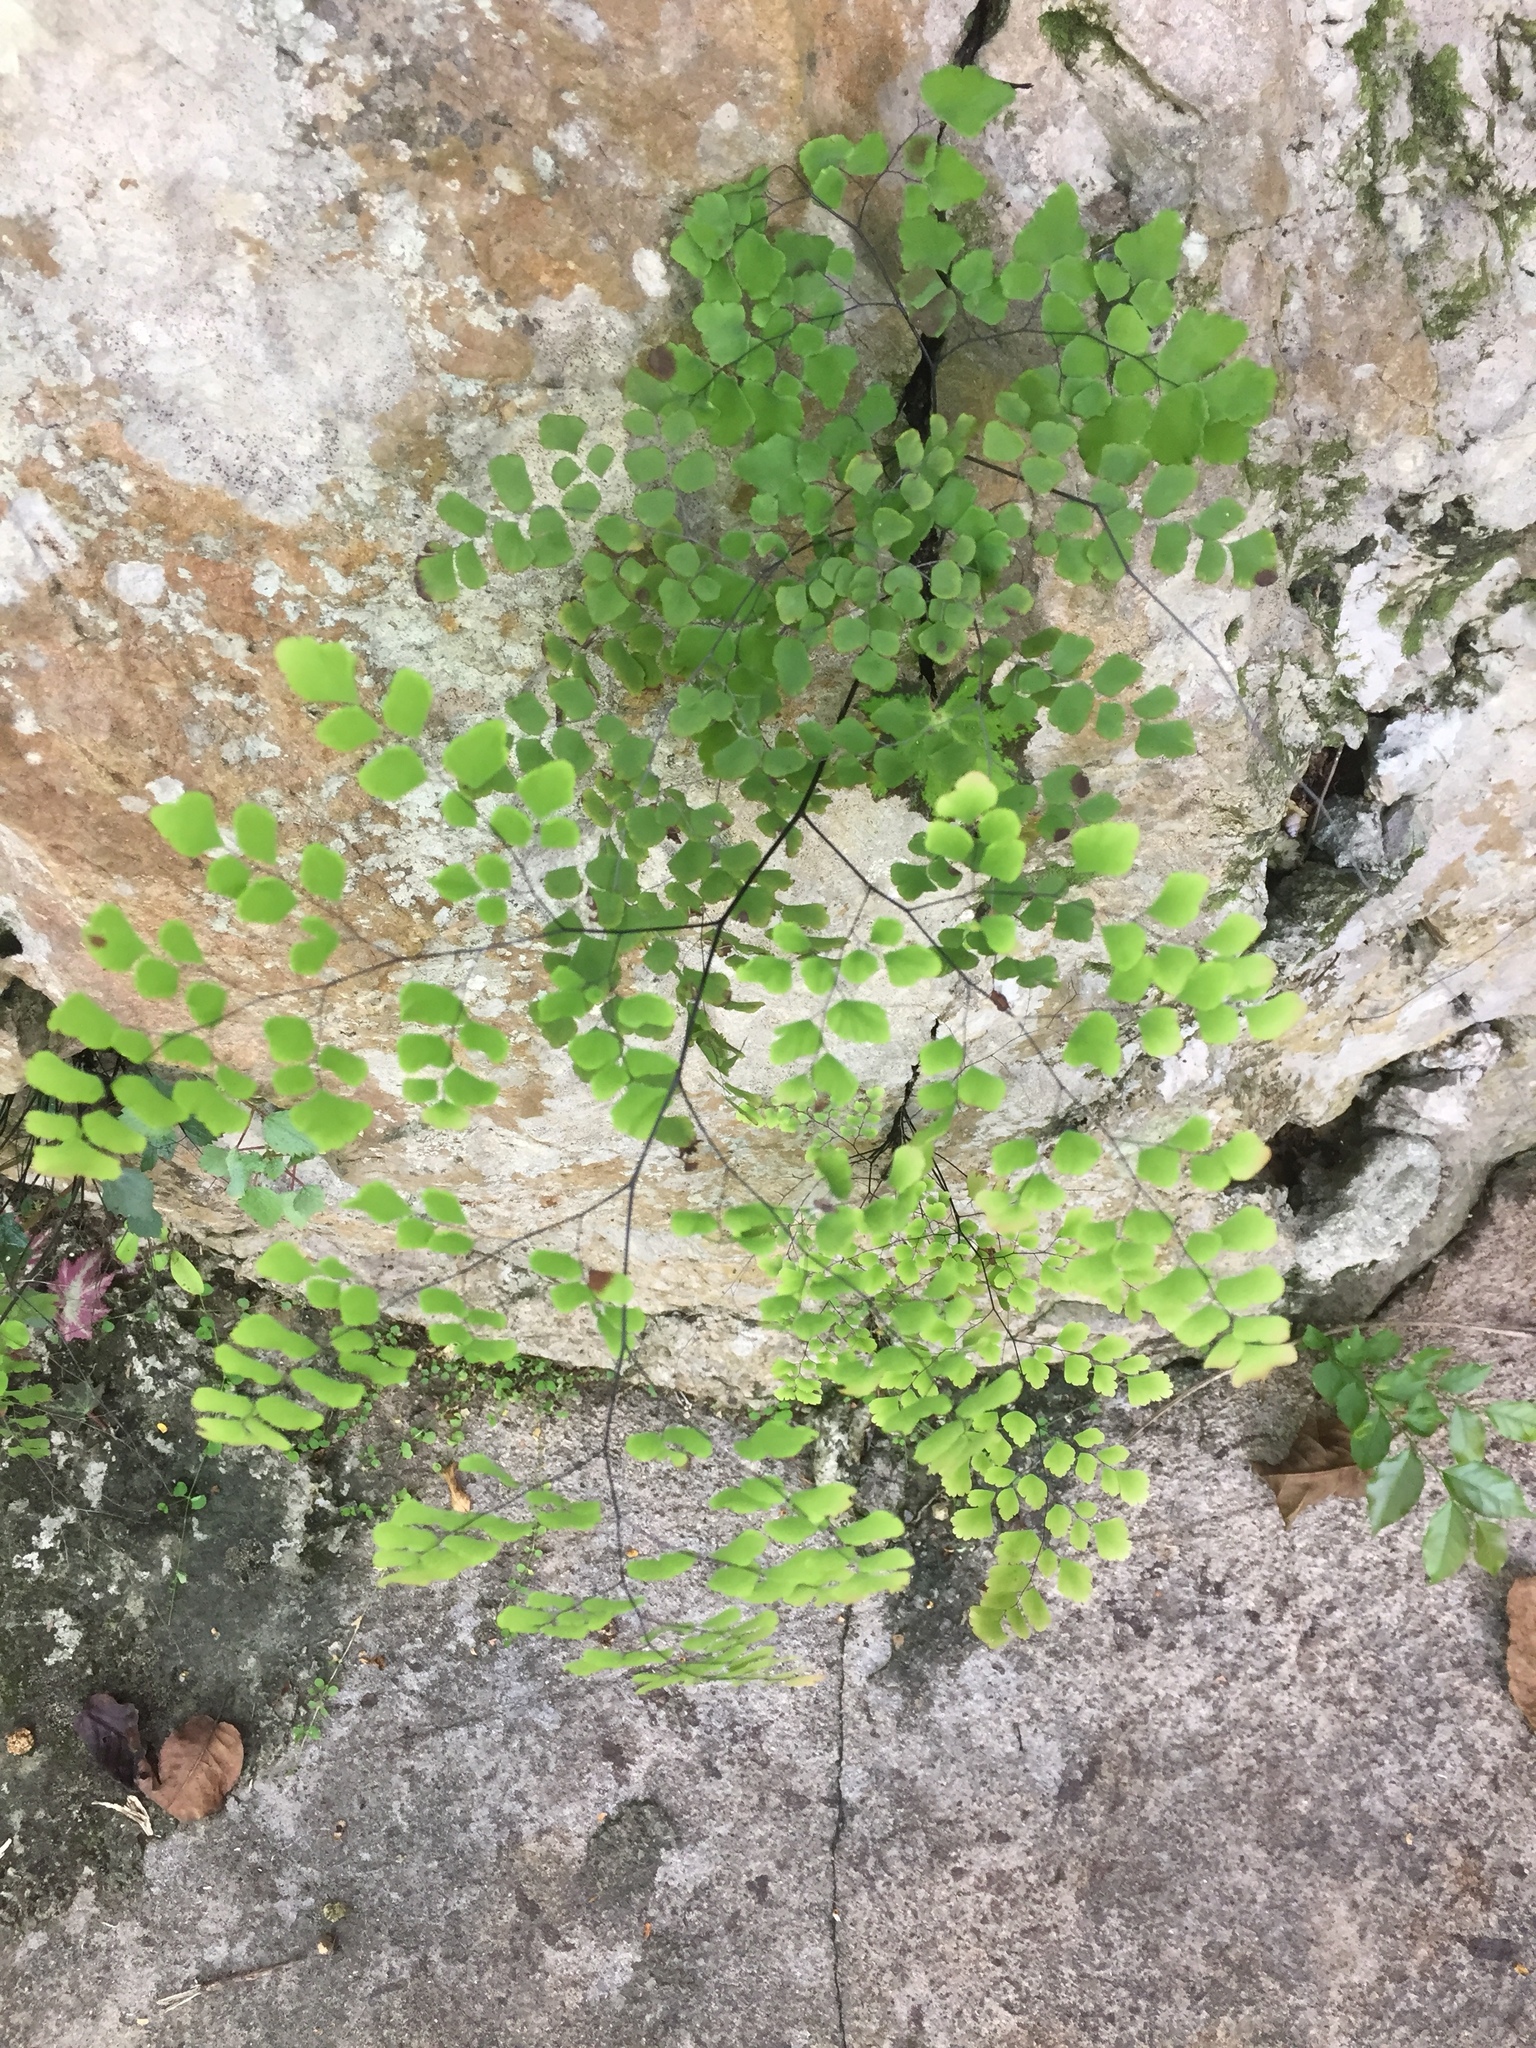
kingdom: Plantae
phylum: Tracheophyta
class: Polypodiopsida
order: Polypodiales
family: Pteridaceae
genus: Adiantum
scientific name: Adiantum capillus-veneris
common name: Maidenhair fern
